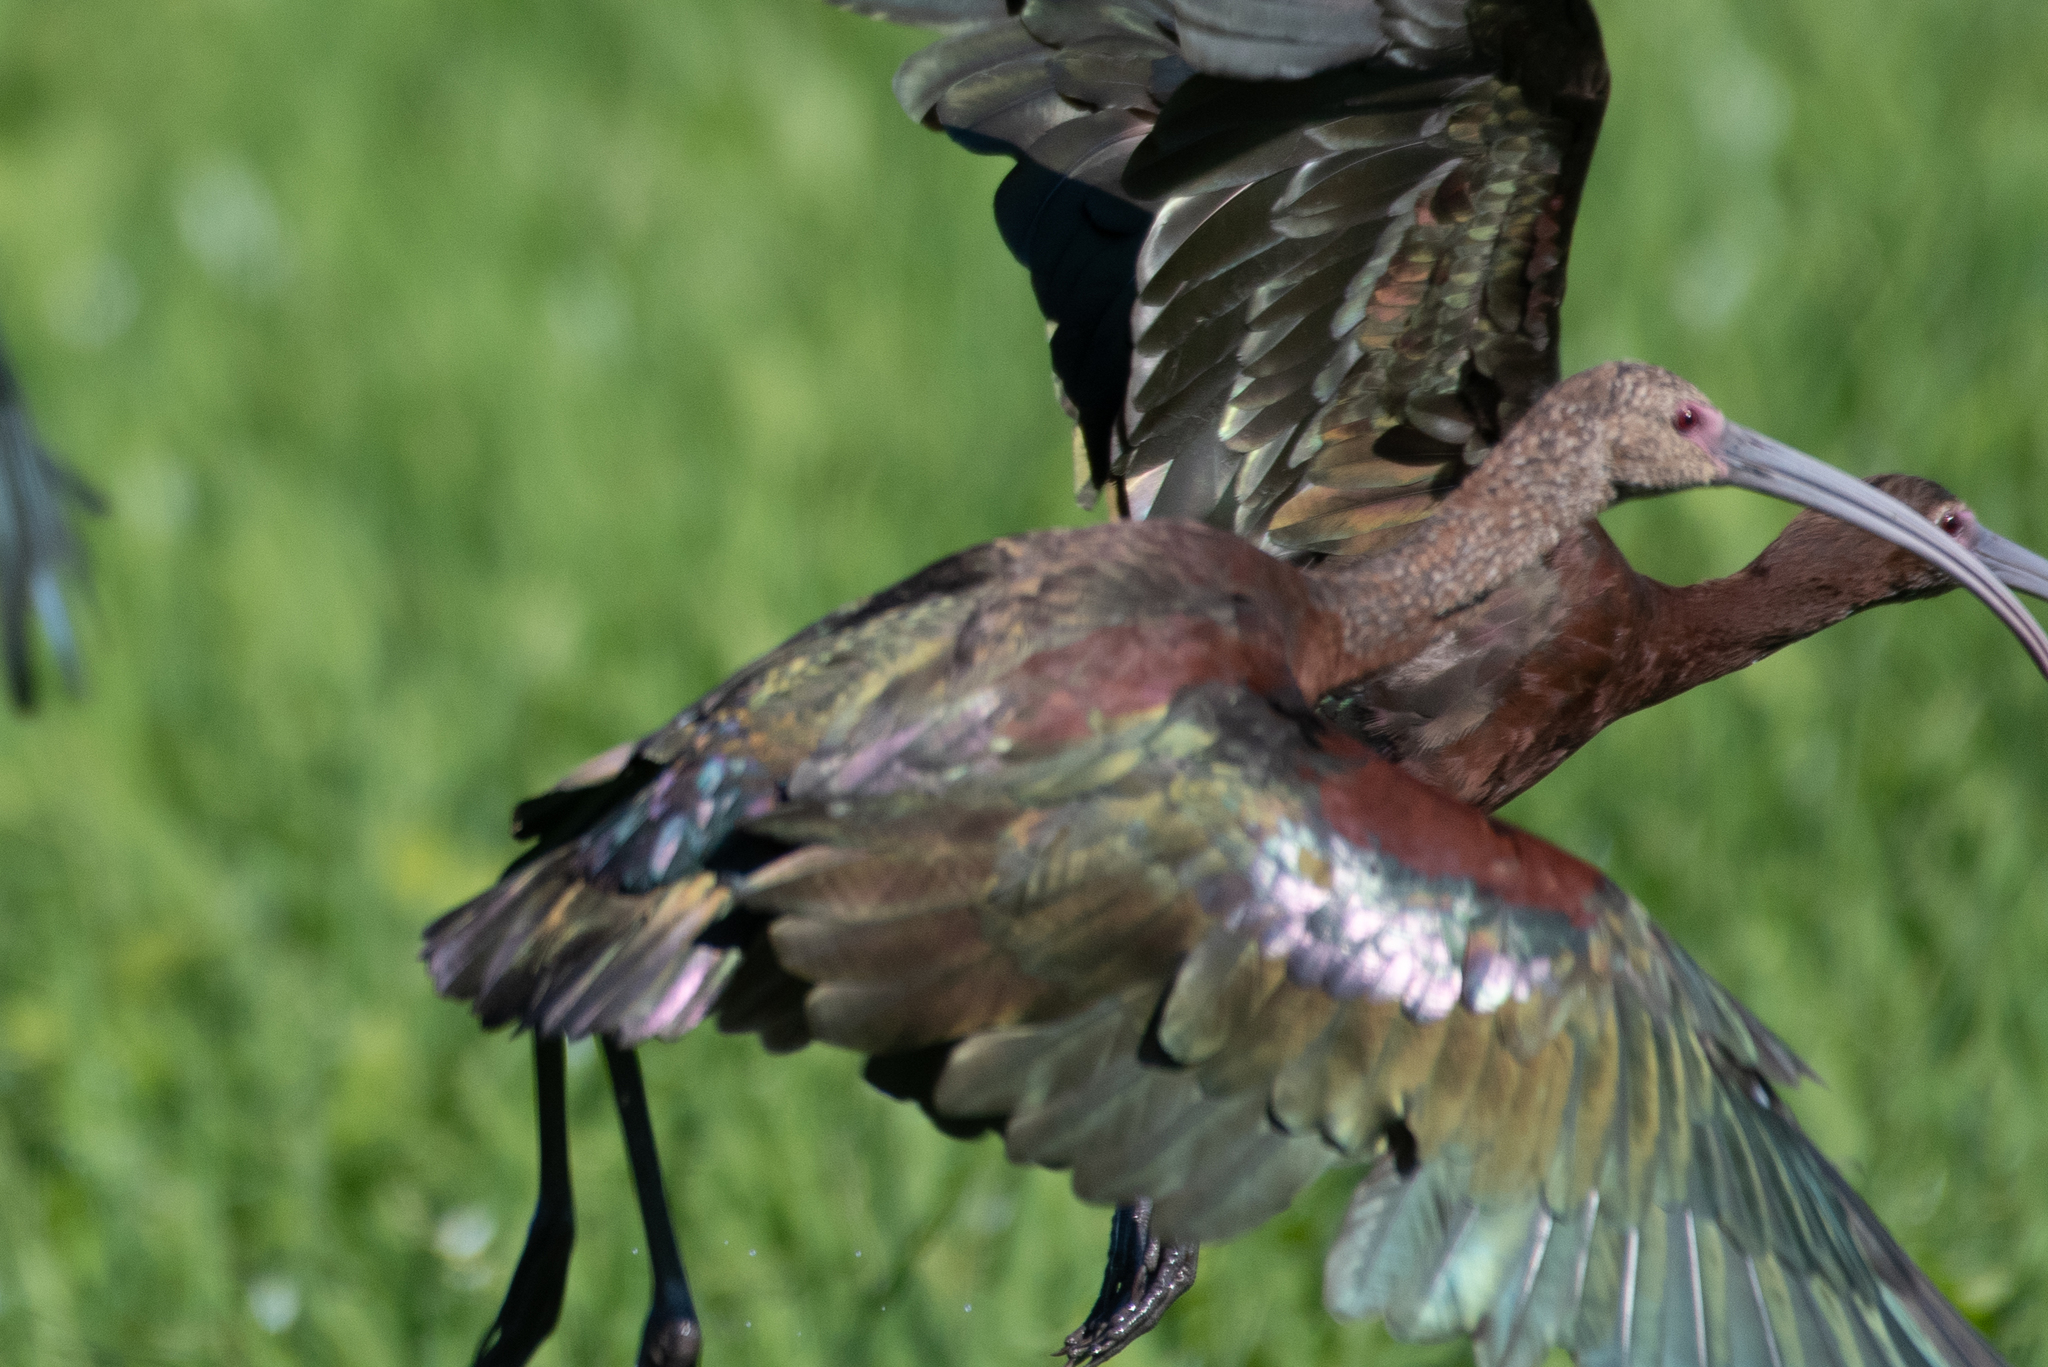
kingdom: Animalia
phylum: Chordata
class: Aves
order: Pelecaniformes
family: Threskiornithidae
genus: Plegadis
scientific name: Plegadis chihi
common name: White-faced ibis
